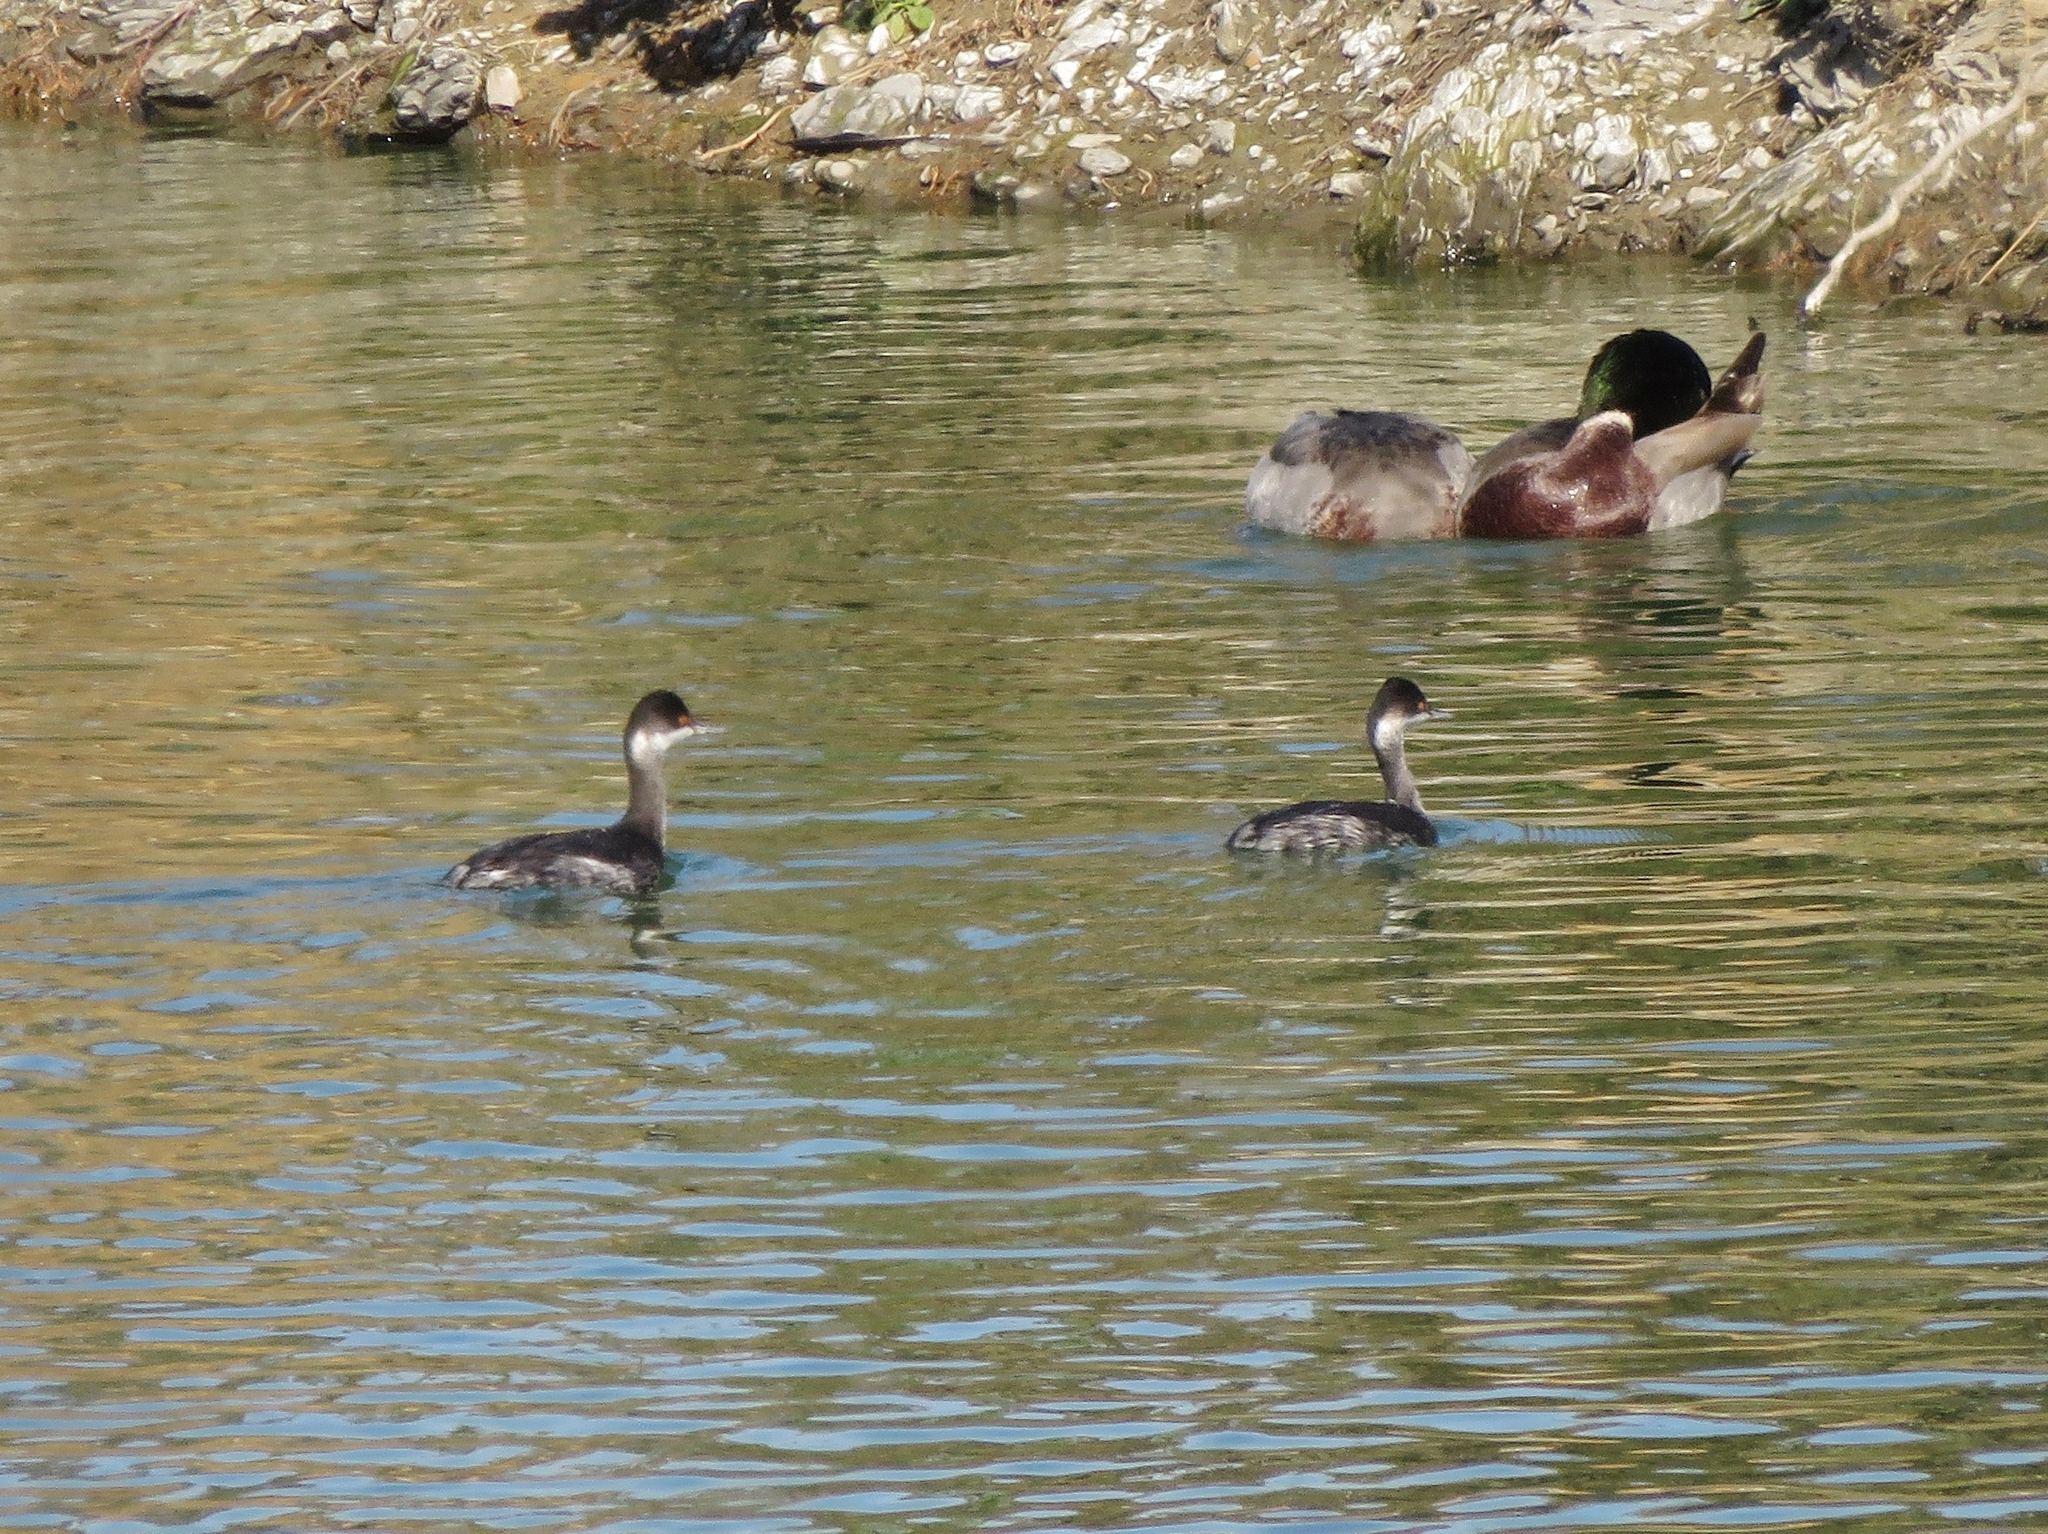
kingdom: Animalia
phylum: Chordata
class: Aves
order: Podicipediformes
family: Podicipedidae
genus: Podiceps
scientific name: Podiceps nigricollis
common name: Black-necked grebe
